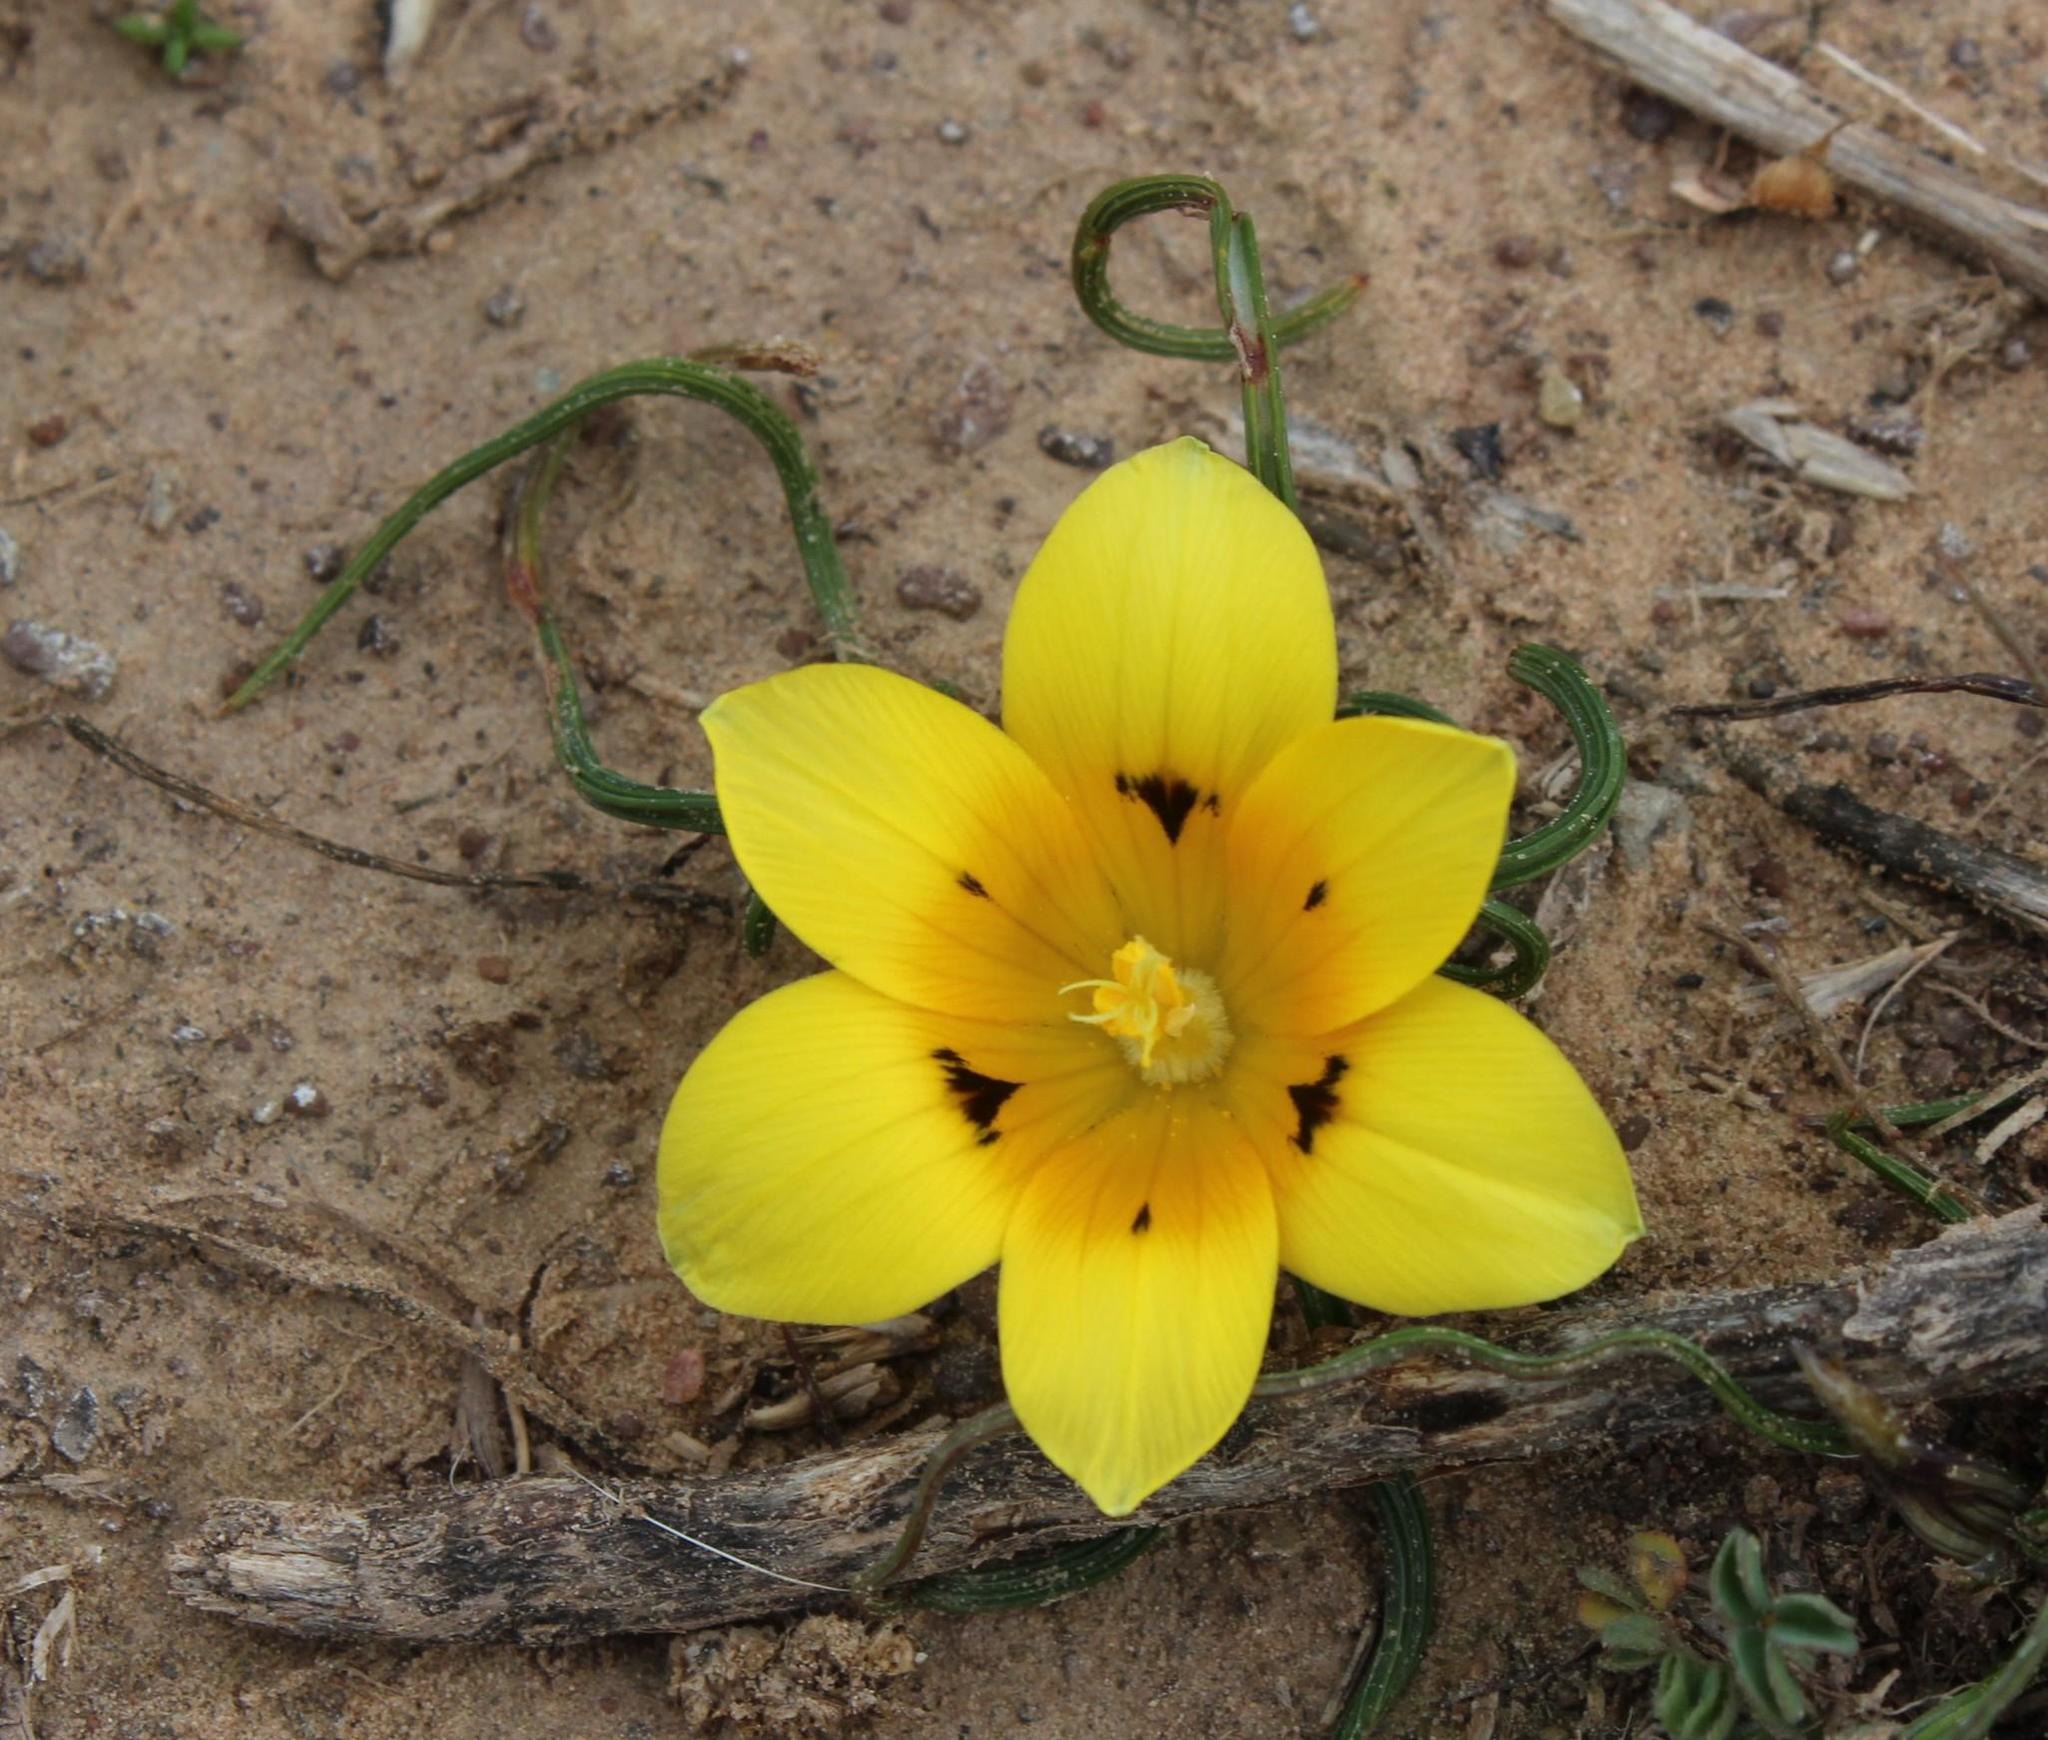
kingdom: Plantae
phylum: Tracheophyta
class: Liliopsida
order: Asparagales
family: Iridaceae
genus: Romulea
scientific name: Romulea tortuosa
